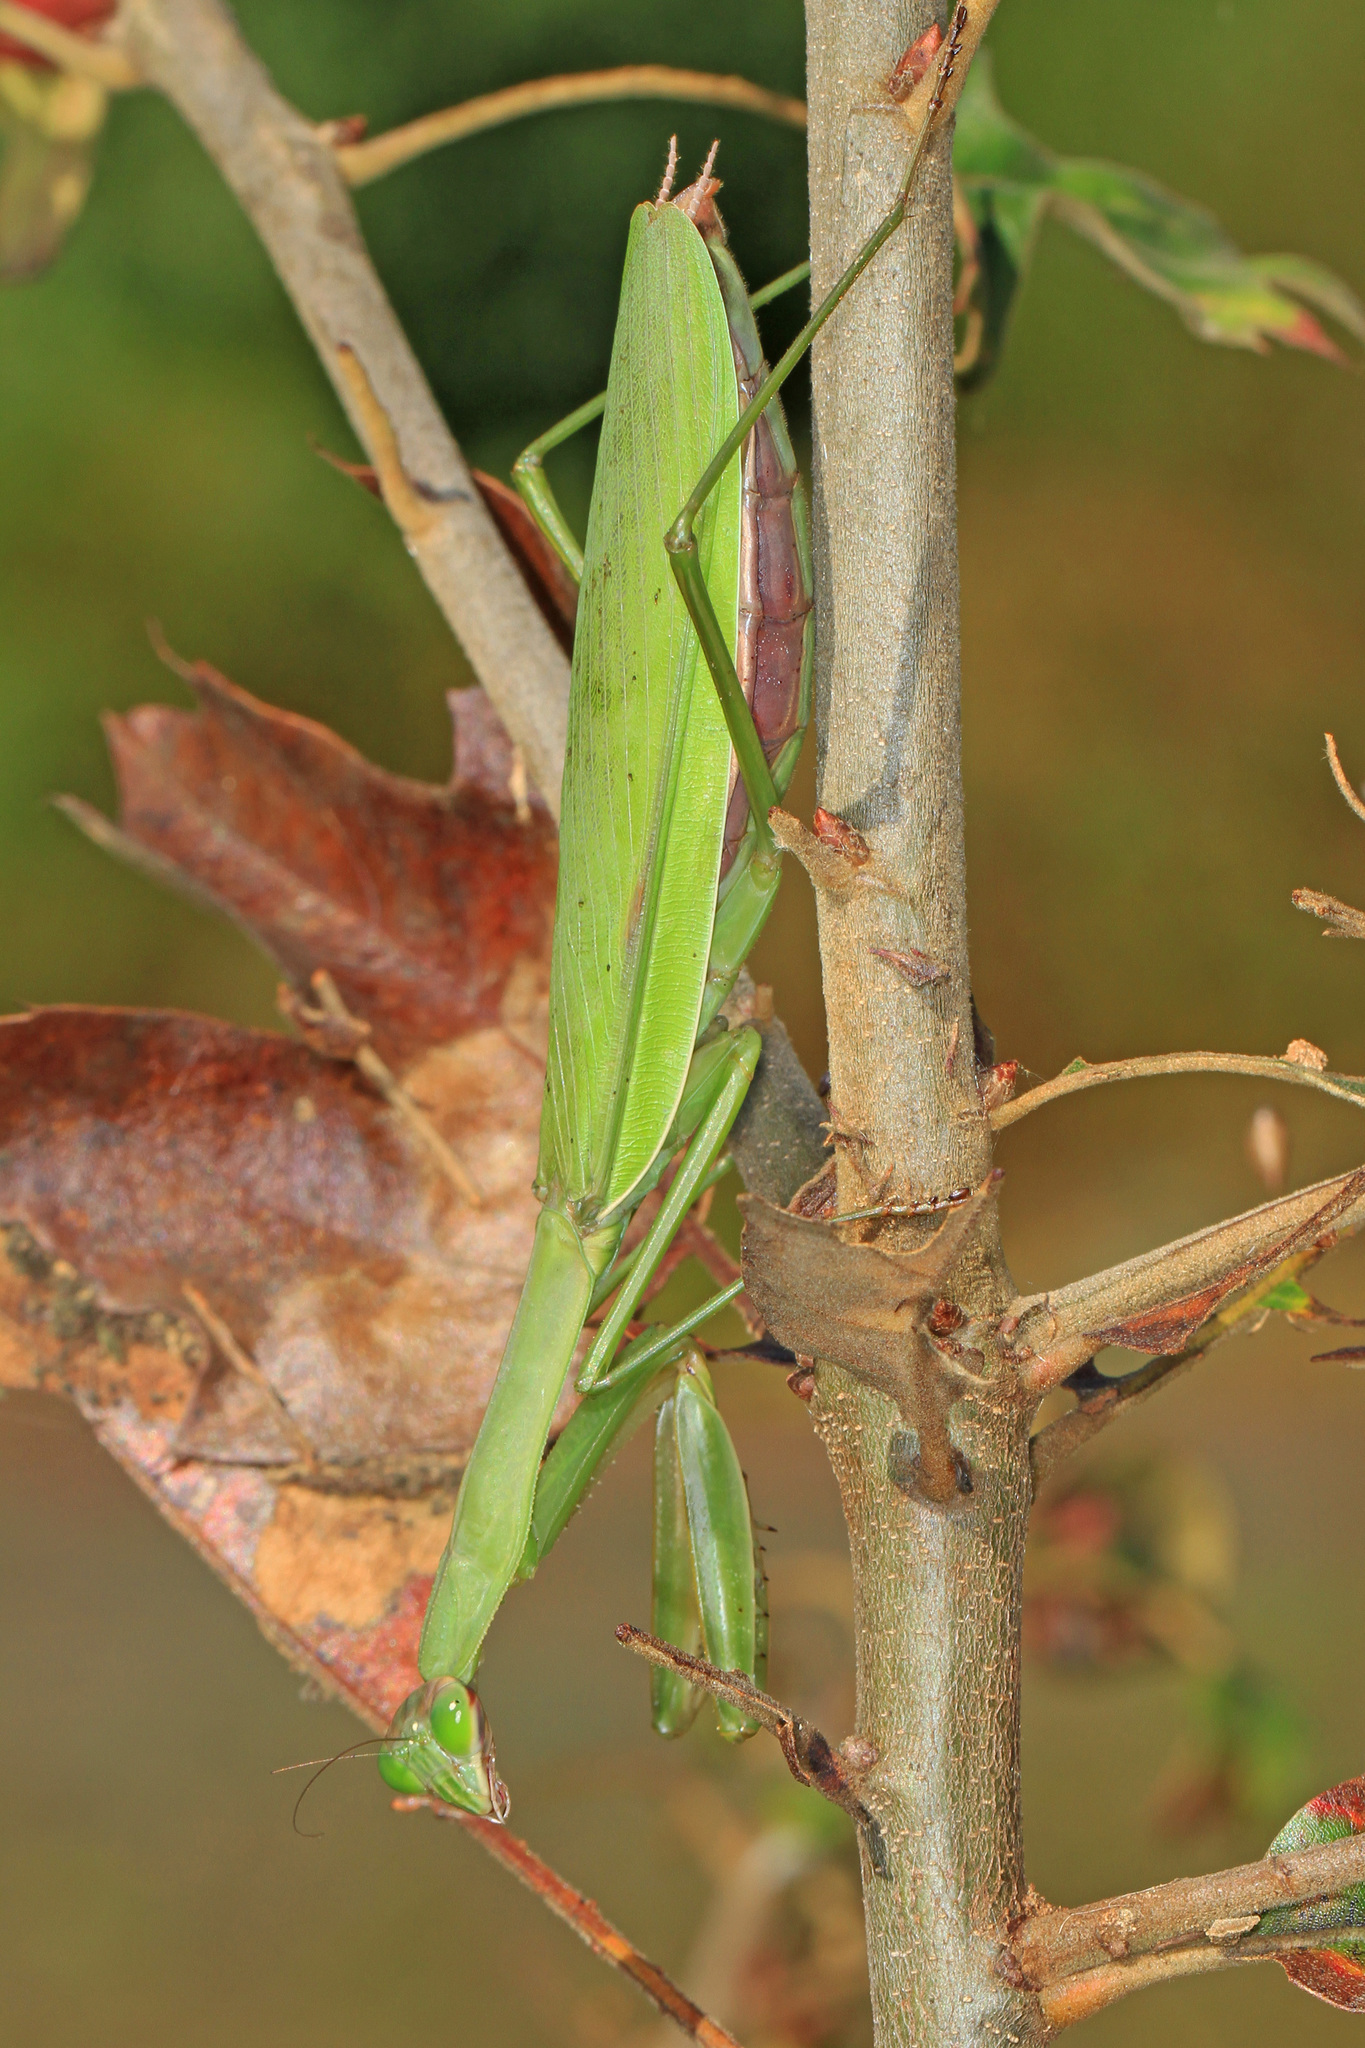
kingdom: Animalia
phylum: Arthropoda
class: Insecta
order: Mantodea
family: Mantidae
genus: Tenodera
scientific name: Tenodera sinensis
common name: Chinese mantis
